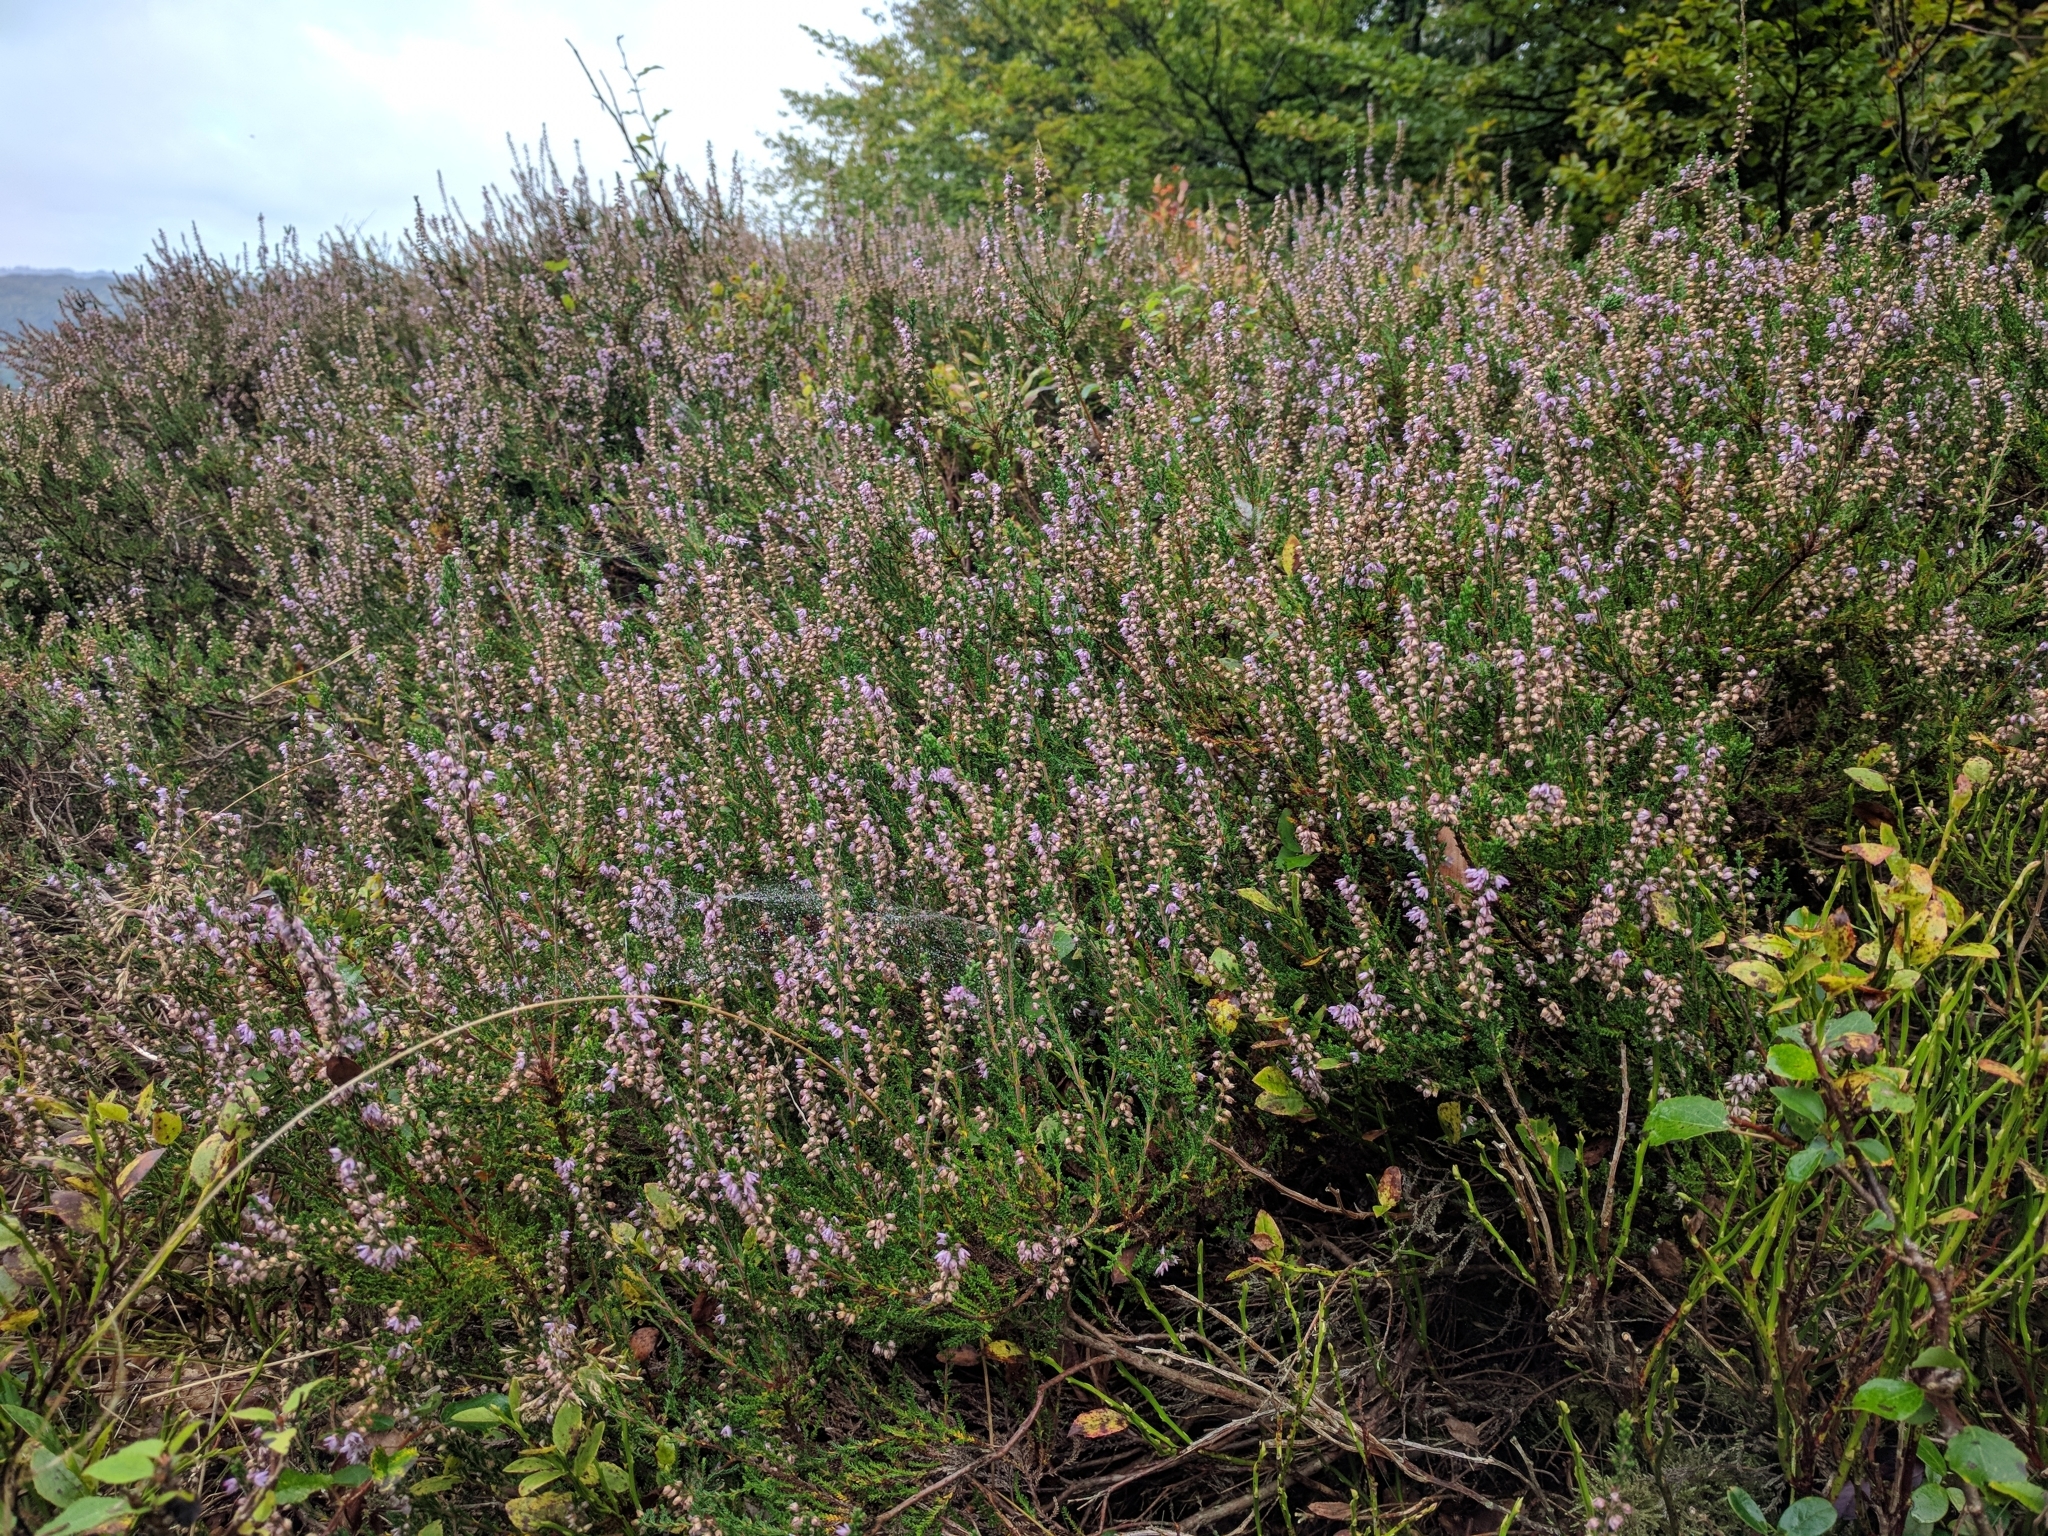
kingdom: Plantae
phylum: Tracheophyta
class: Magnoliopsida
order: Ericales
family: Ericaceae
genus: Calluna
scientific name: Calluna vulgaris
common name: Heather
